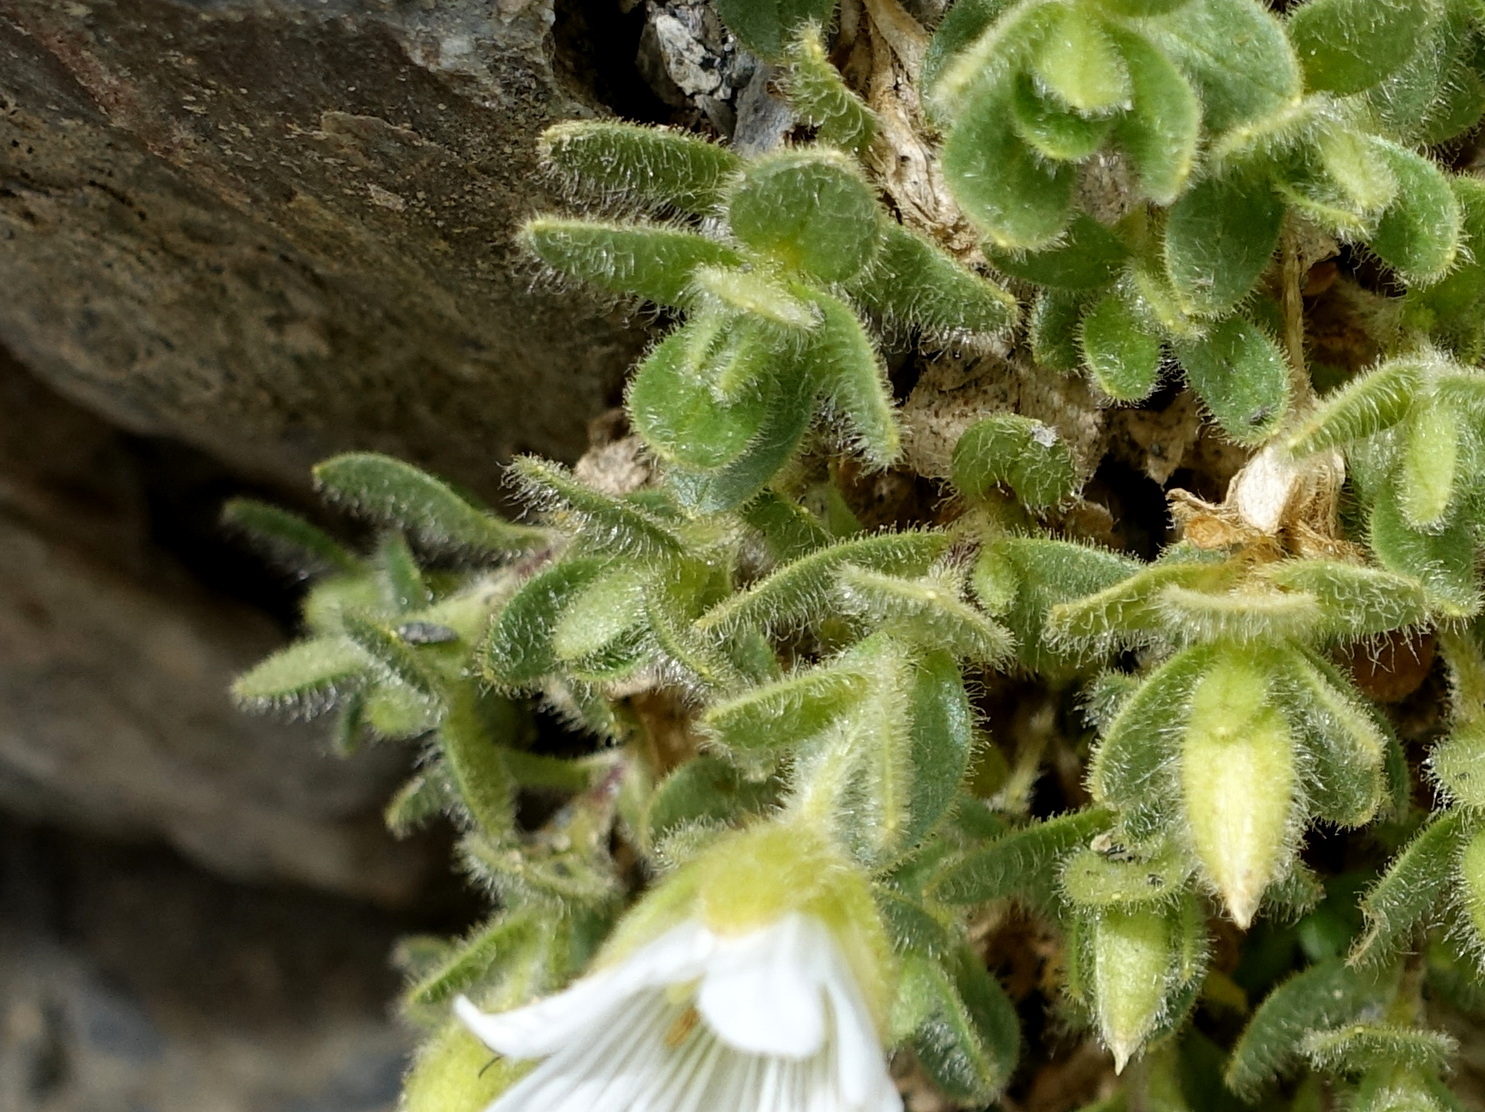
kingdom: Plantae
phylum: Tracheophyta
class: Magnoliopsida
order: Caryophyllales
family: Caryophyllaceae
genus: Cerastium
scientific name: Cerastium uniflorum
